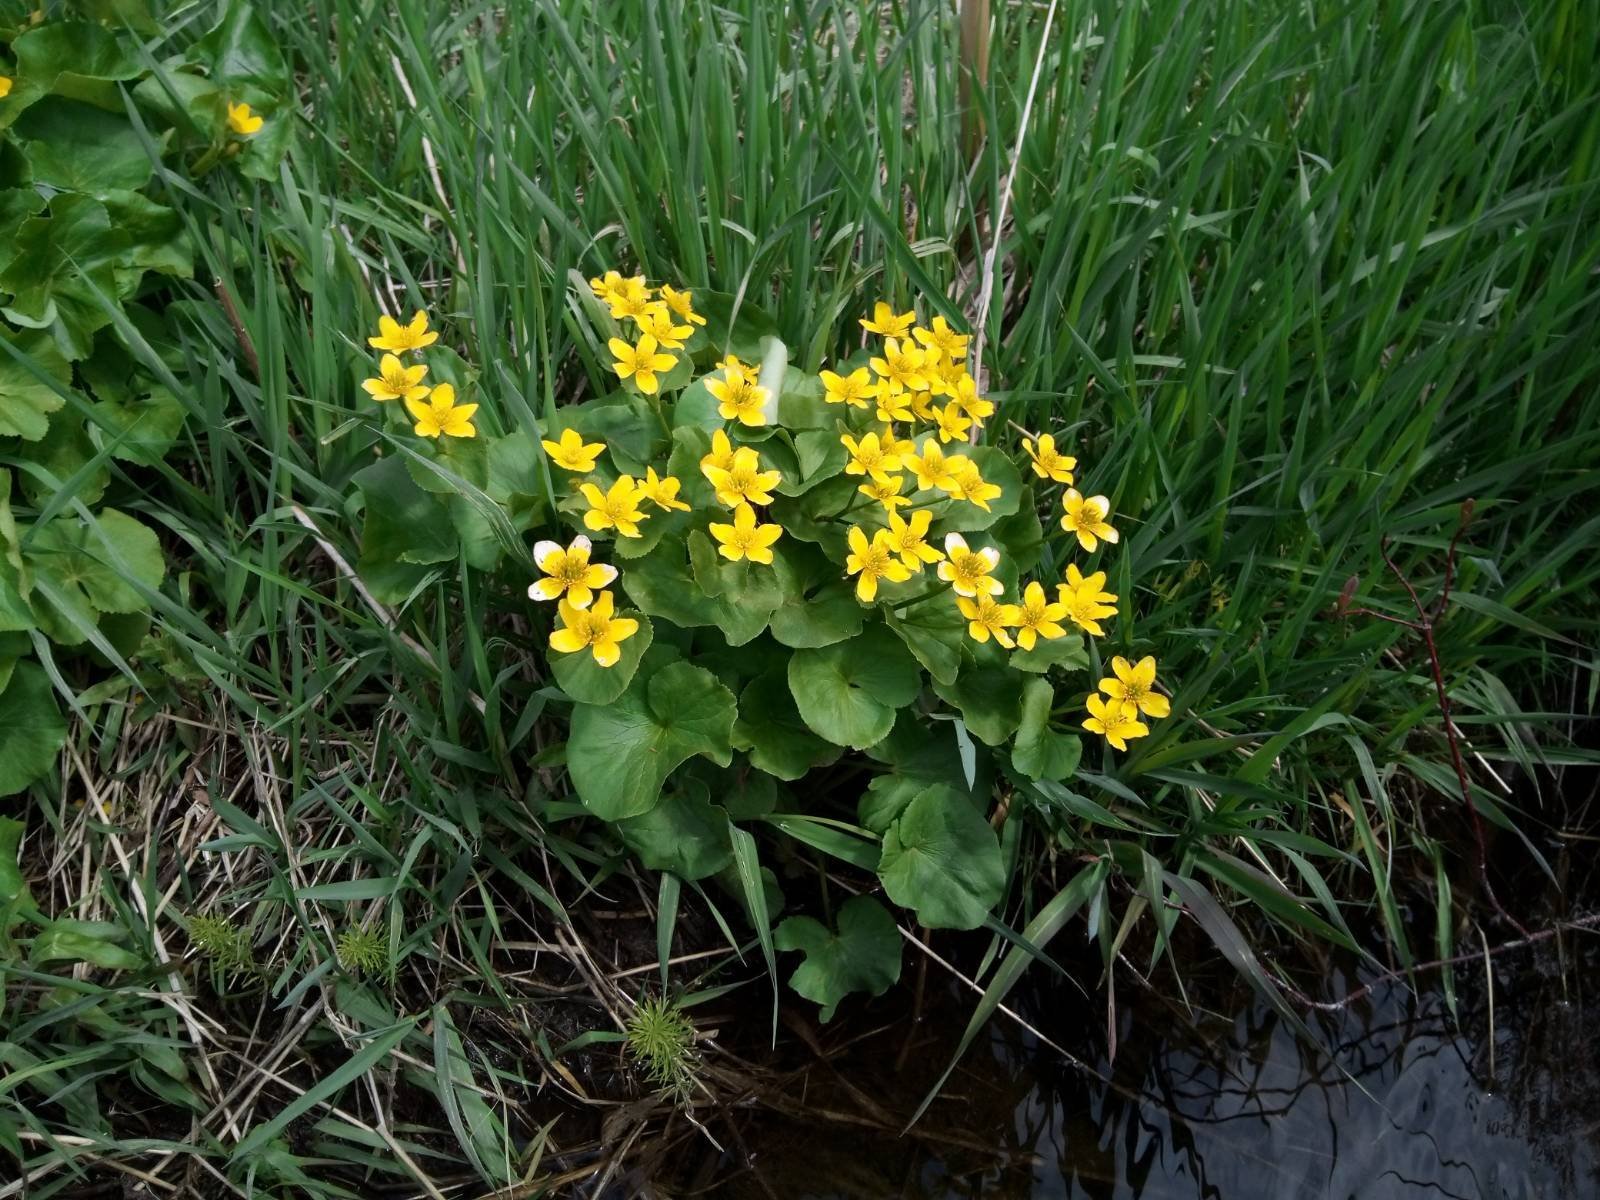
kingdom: Plantae
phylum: Tracheophyta
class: Magnoliopsida
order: Ranunculales
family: Ranunculaceae
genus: Caltha
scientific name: Caltha palustris
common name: Marsh marigold
